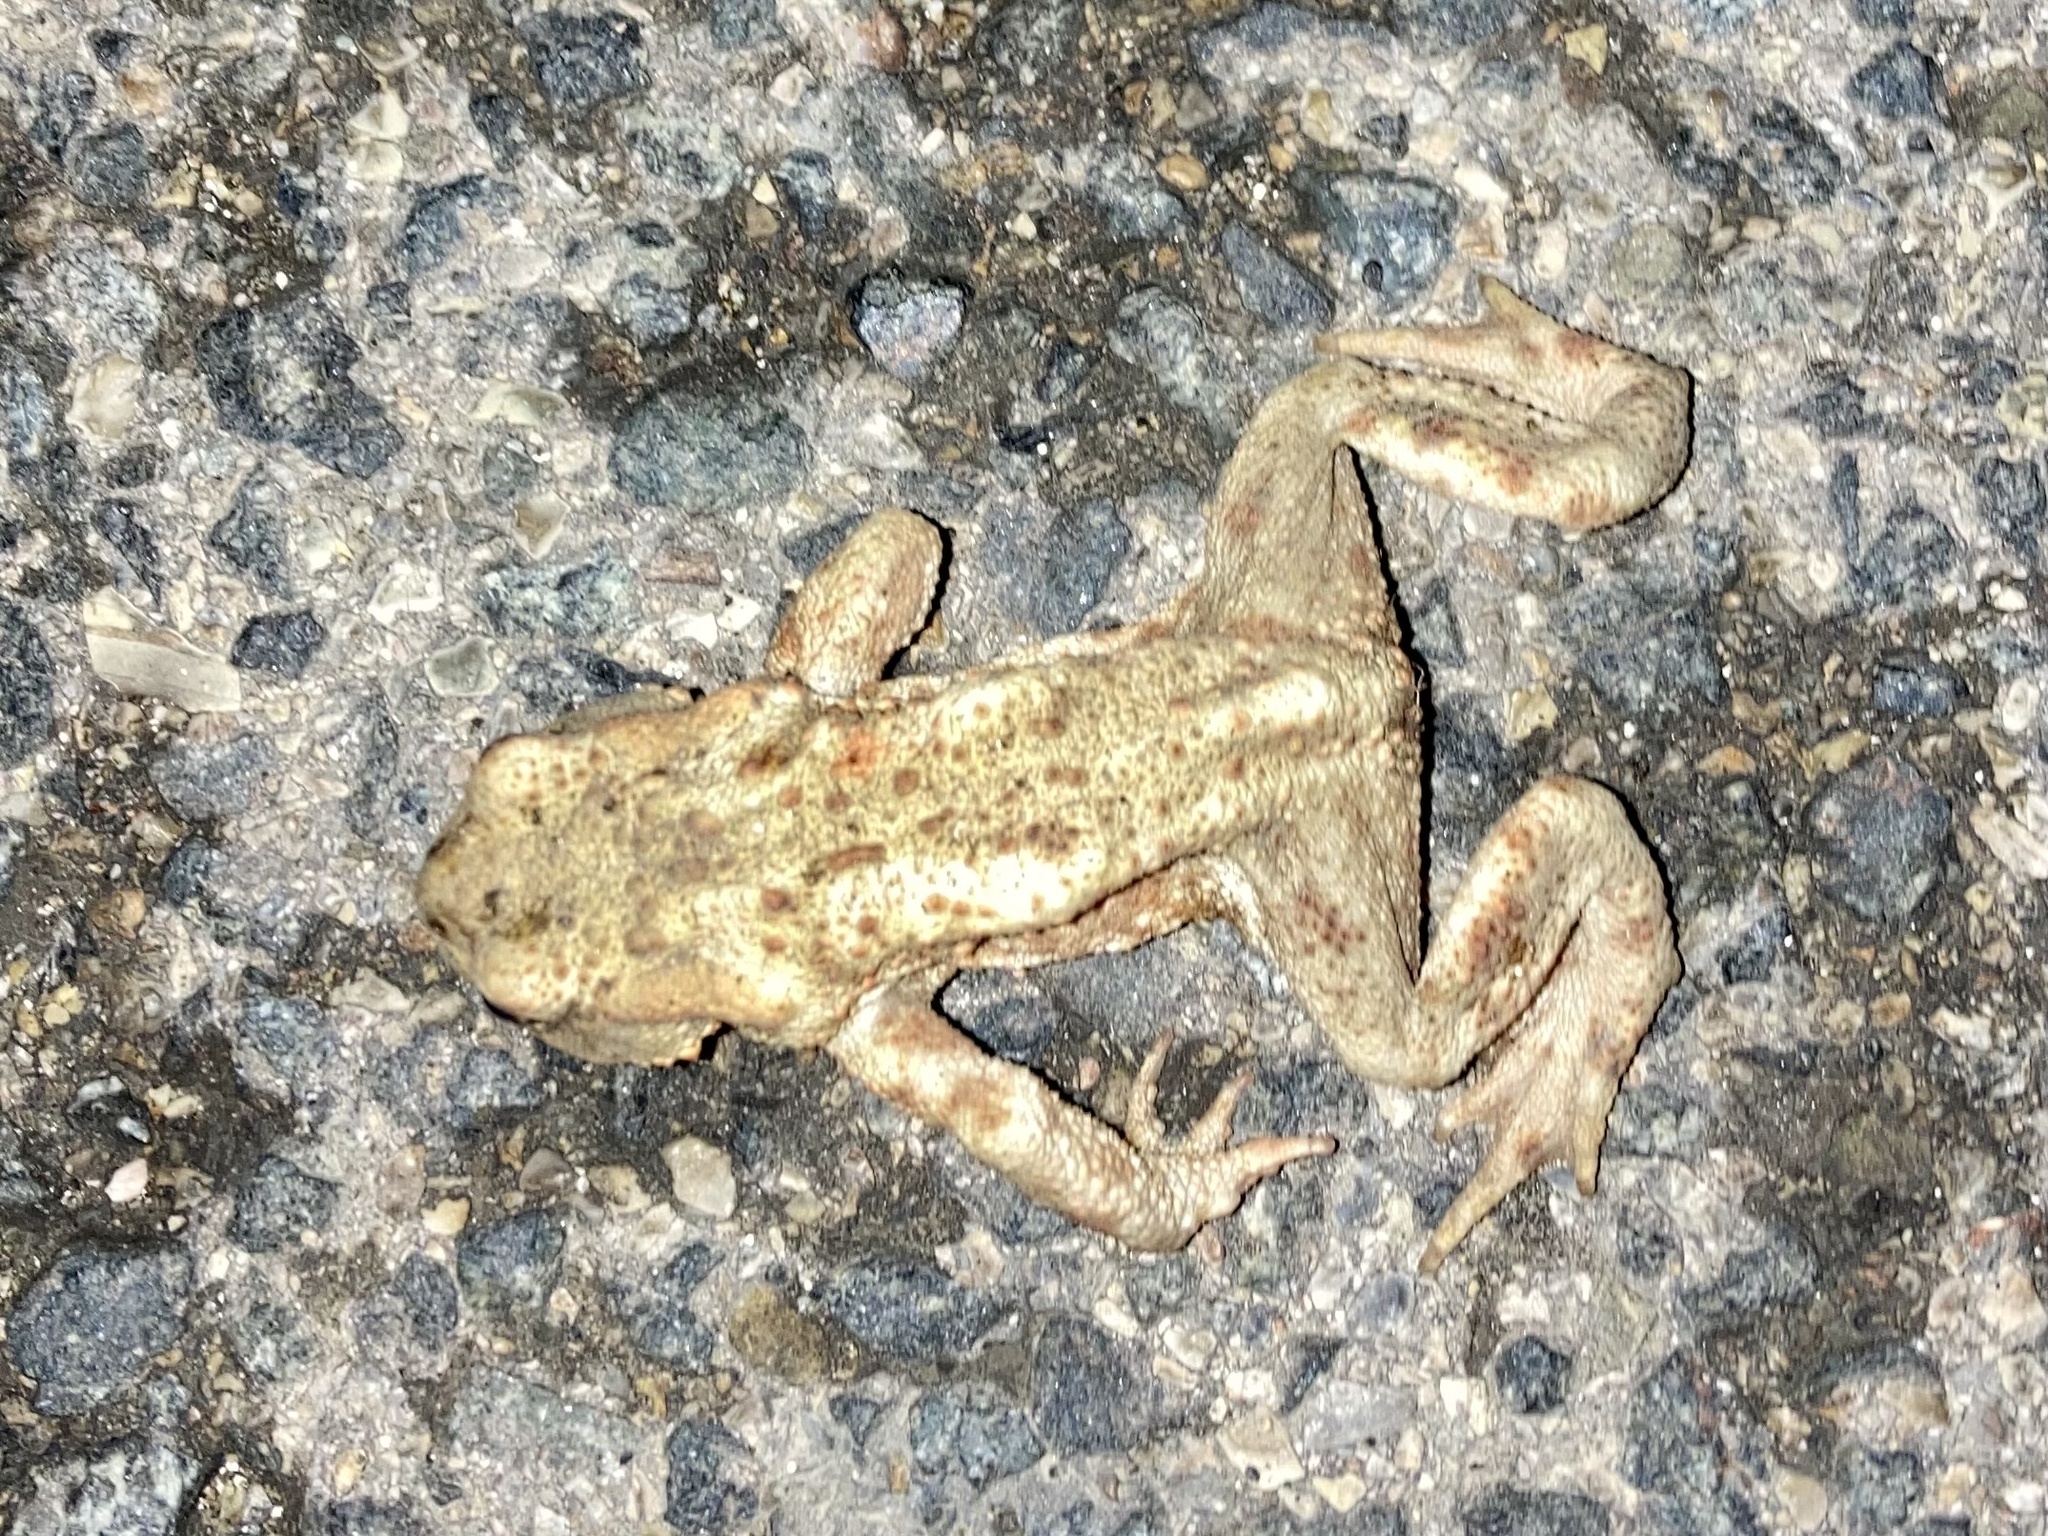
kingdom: Animalia
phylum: Chordata
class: Amphibia
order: Anura
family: Bufonidae
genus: Bufo
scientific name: Bufo bufo
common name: Common toad
